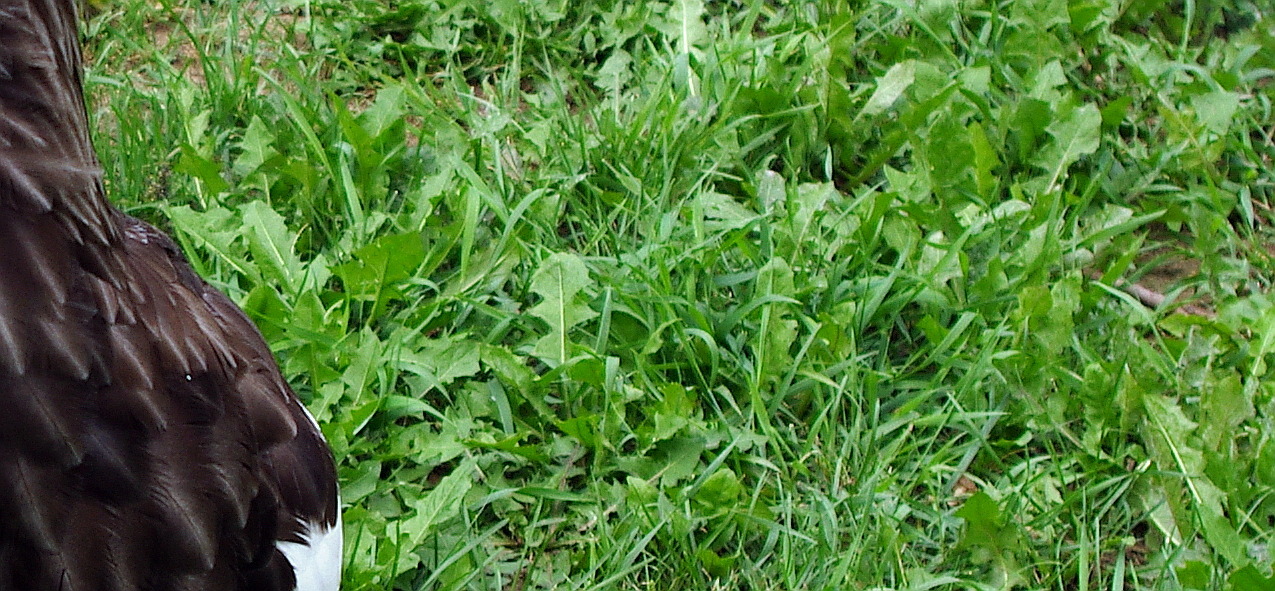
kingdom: Plantae
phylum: Tracheophyta
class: Magnoliopsida
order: Asterales
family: Asteraceae
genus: Taraxacum
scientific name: Taraxacum officinale
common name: Common dandelion
